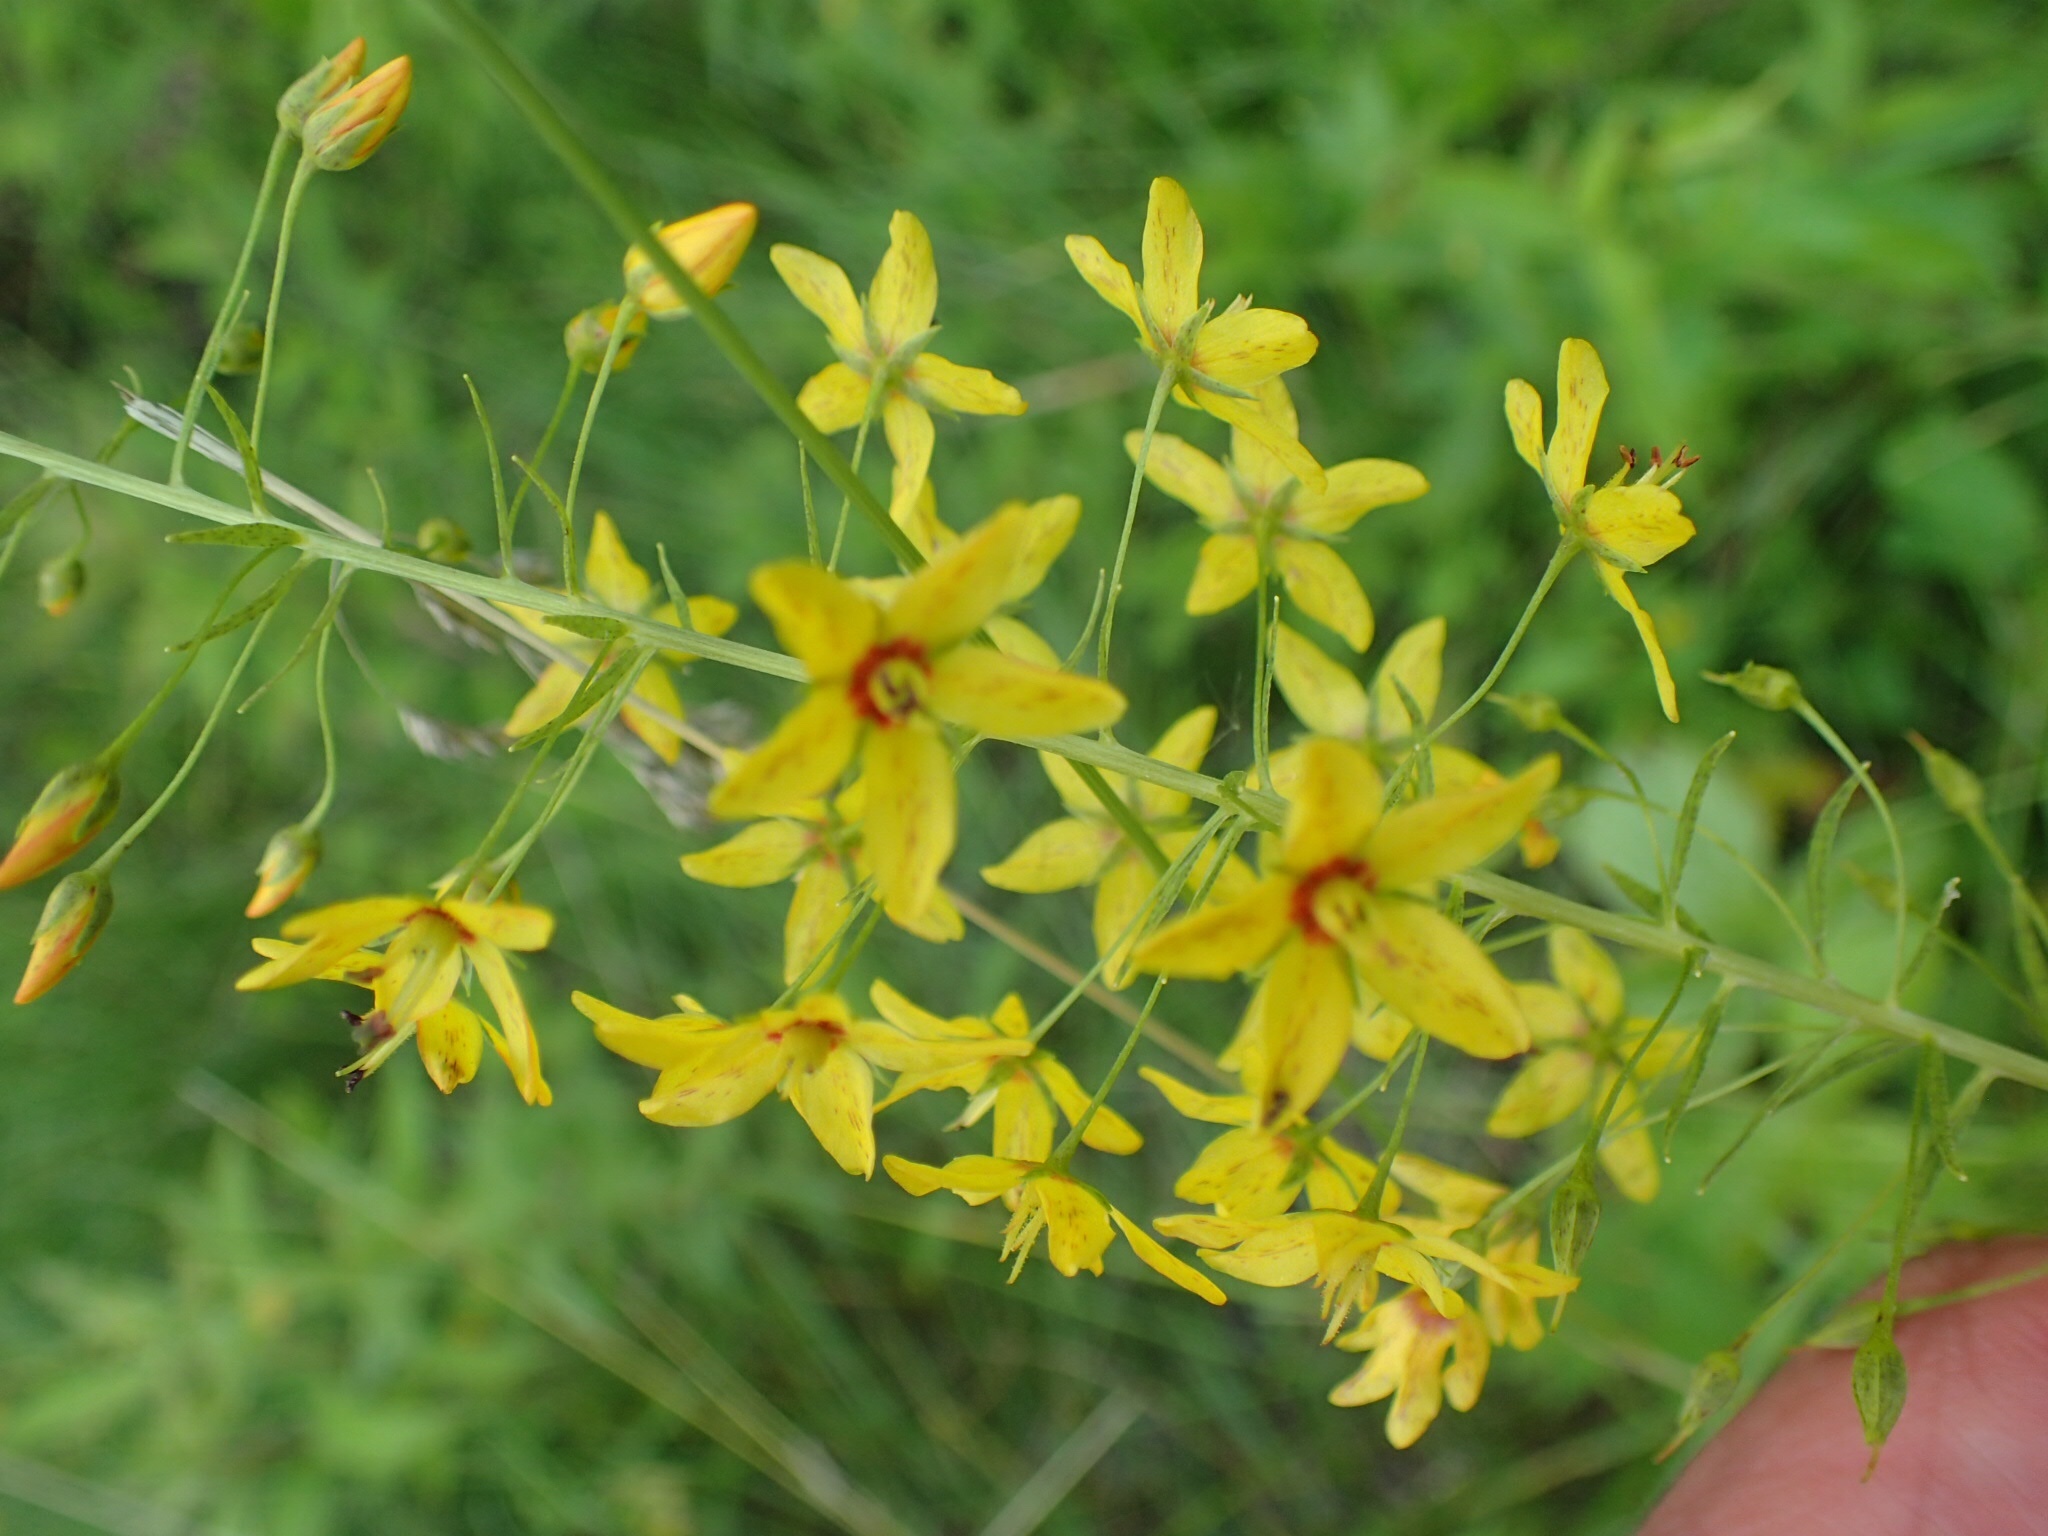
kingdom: Plantae
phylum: Tracheophyta
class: Magnoliopsida
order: Ericales
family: Primulaceae
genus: Lysimachia
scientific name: Lysimachia terrestris
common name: Lake loosestrife
